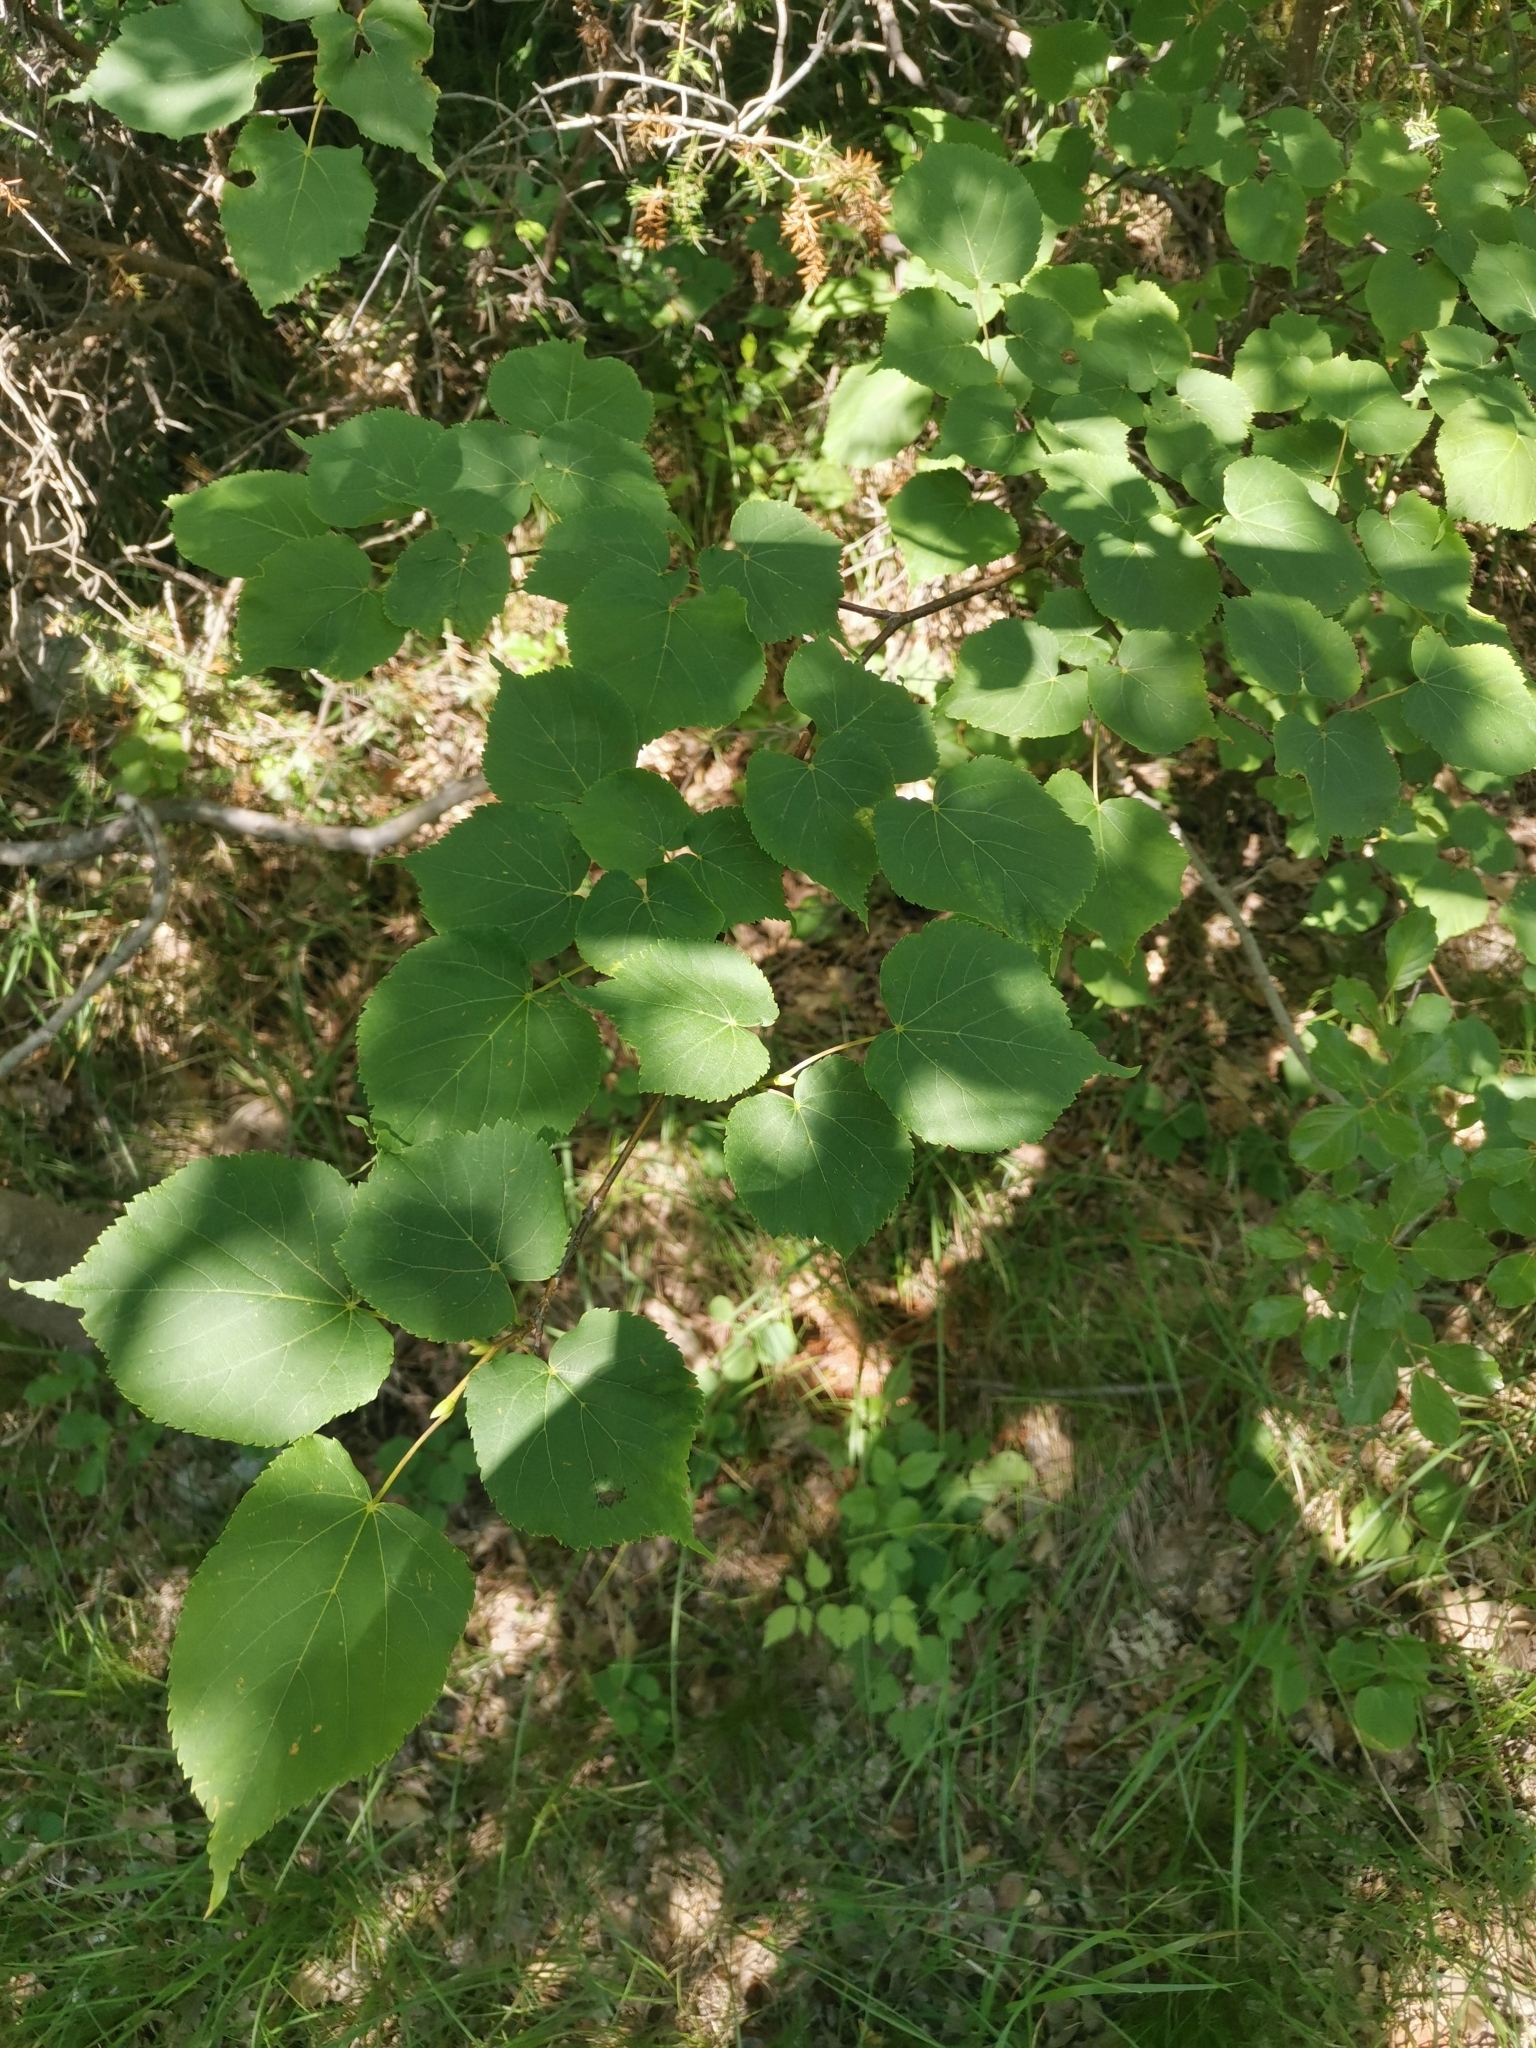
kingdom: Plantae
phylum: Tracheophyta
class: Magnoliopsida
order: Malvales
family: Malvaceae
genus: Tilia
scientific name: Tilia cordata
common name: Small-leaved lime
